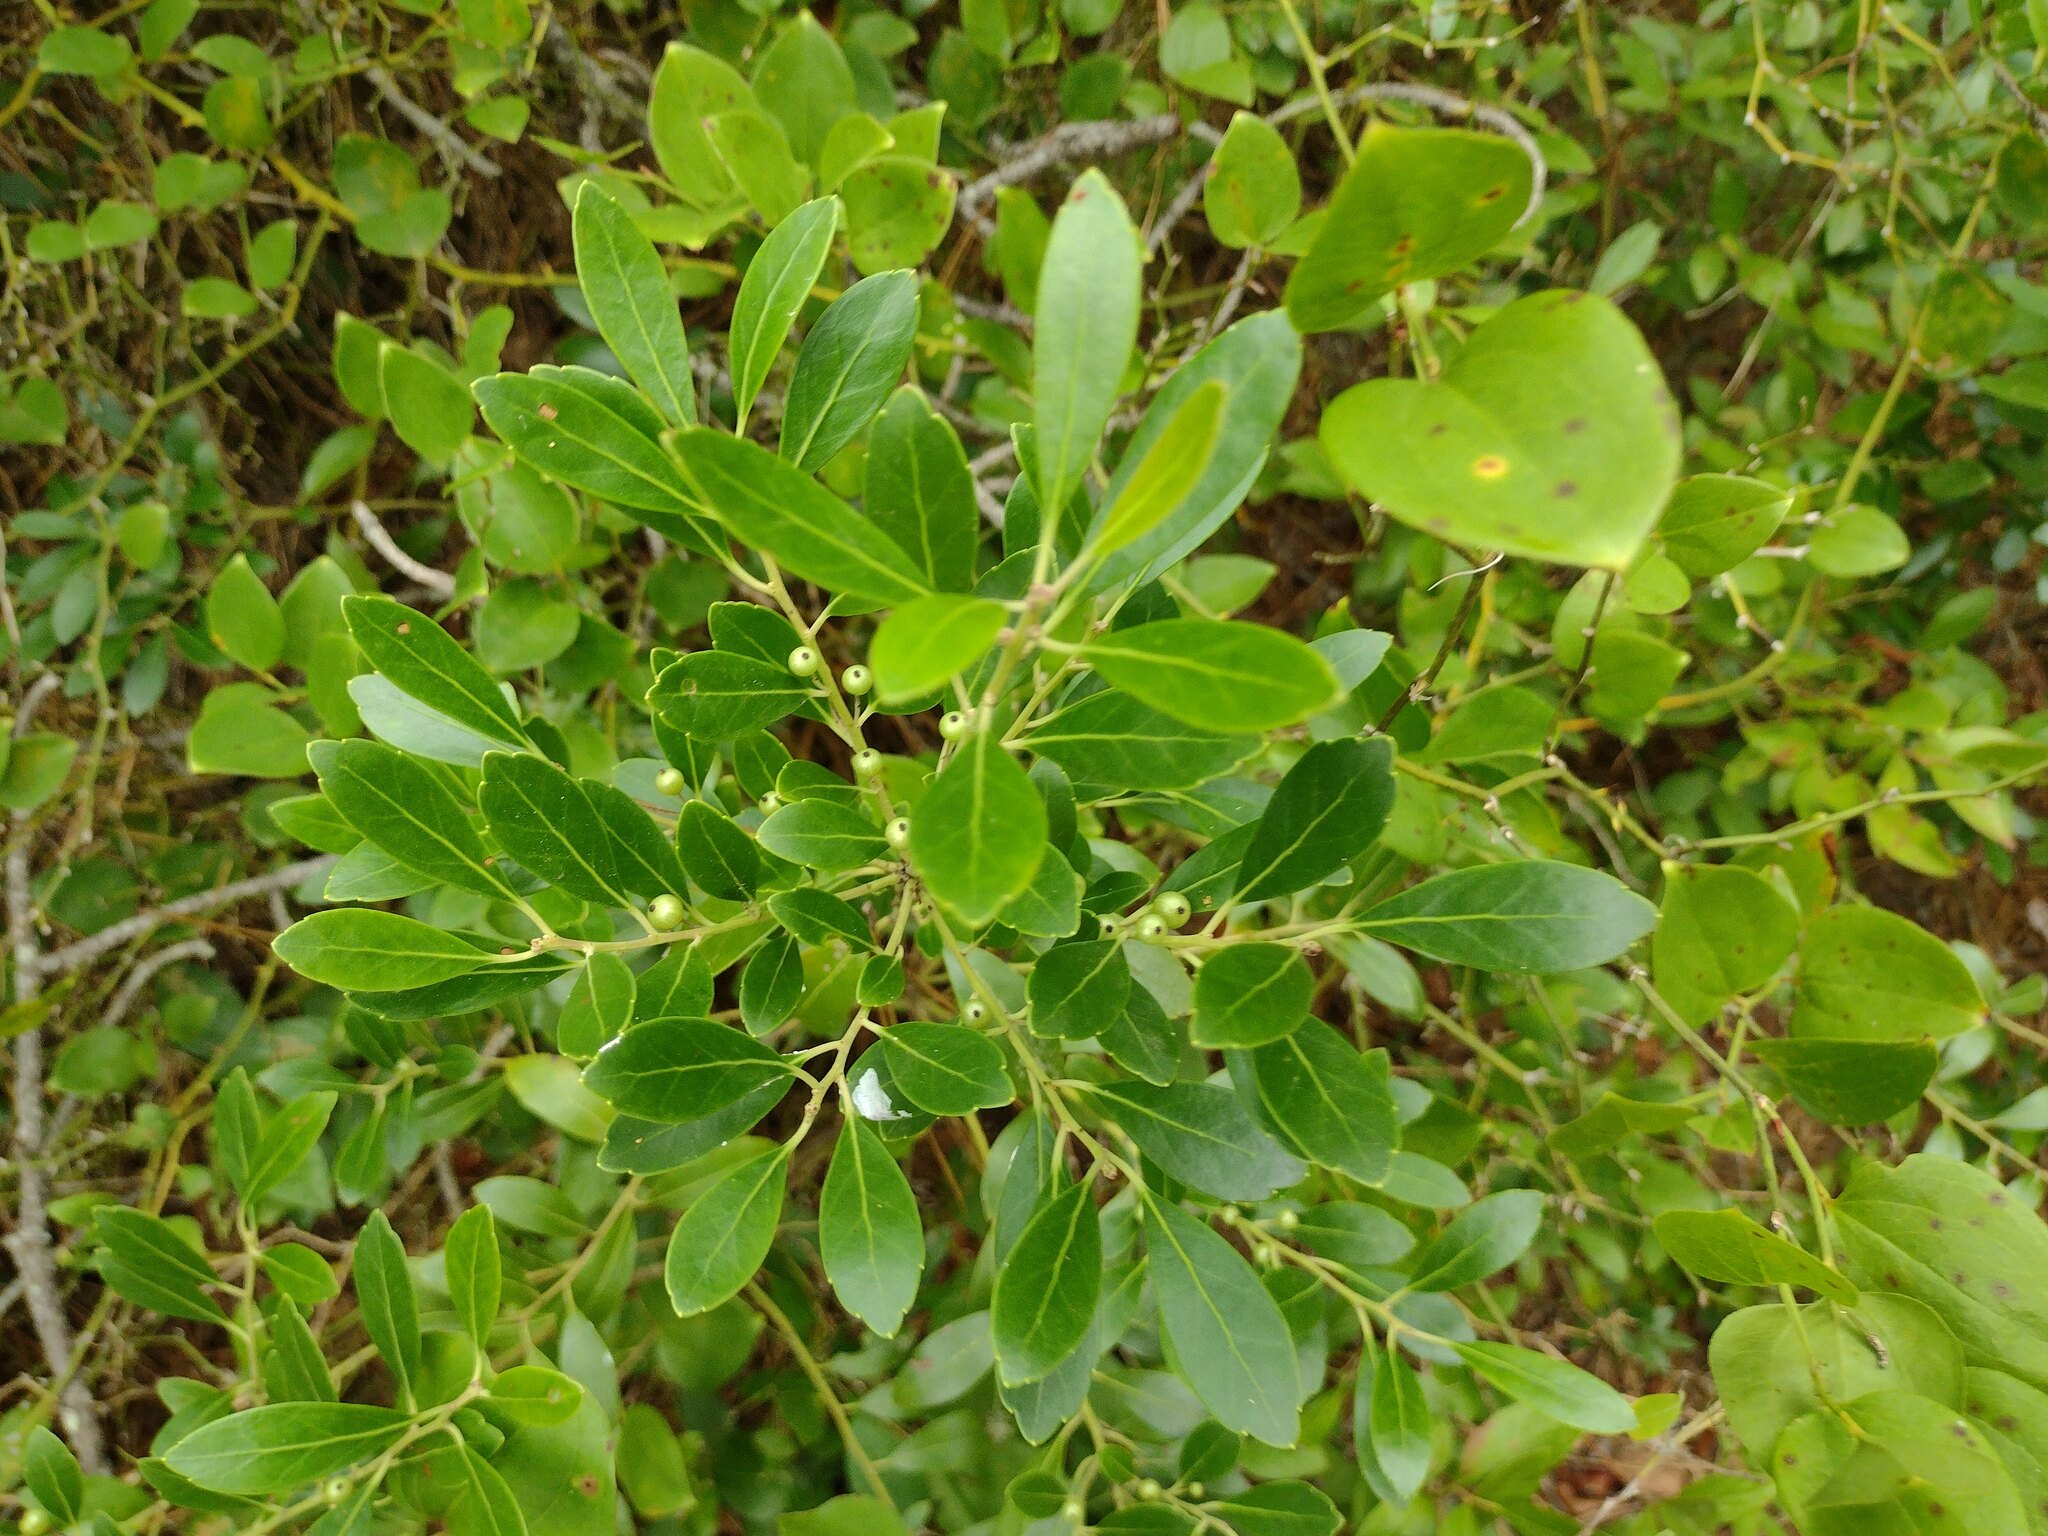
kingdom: Plantae
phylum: Tracheophyta
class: Magnoliopsida
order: Aquifoliales
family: Aquifoliaceae
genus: Ilex
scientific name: Ilex glabra
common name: Bitter gallberry
